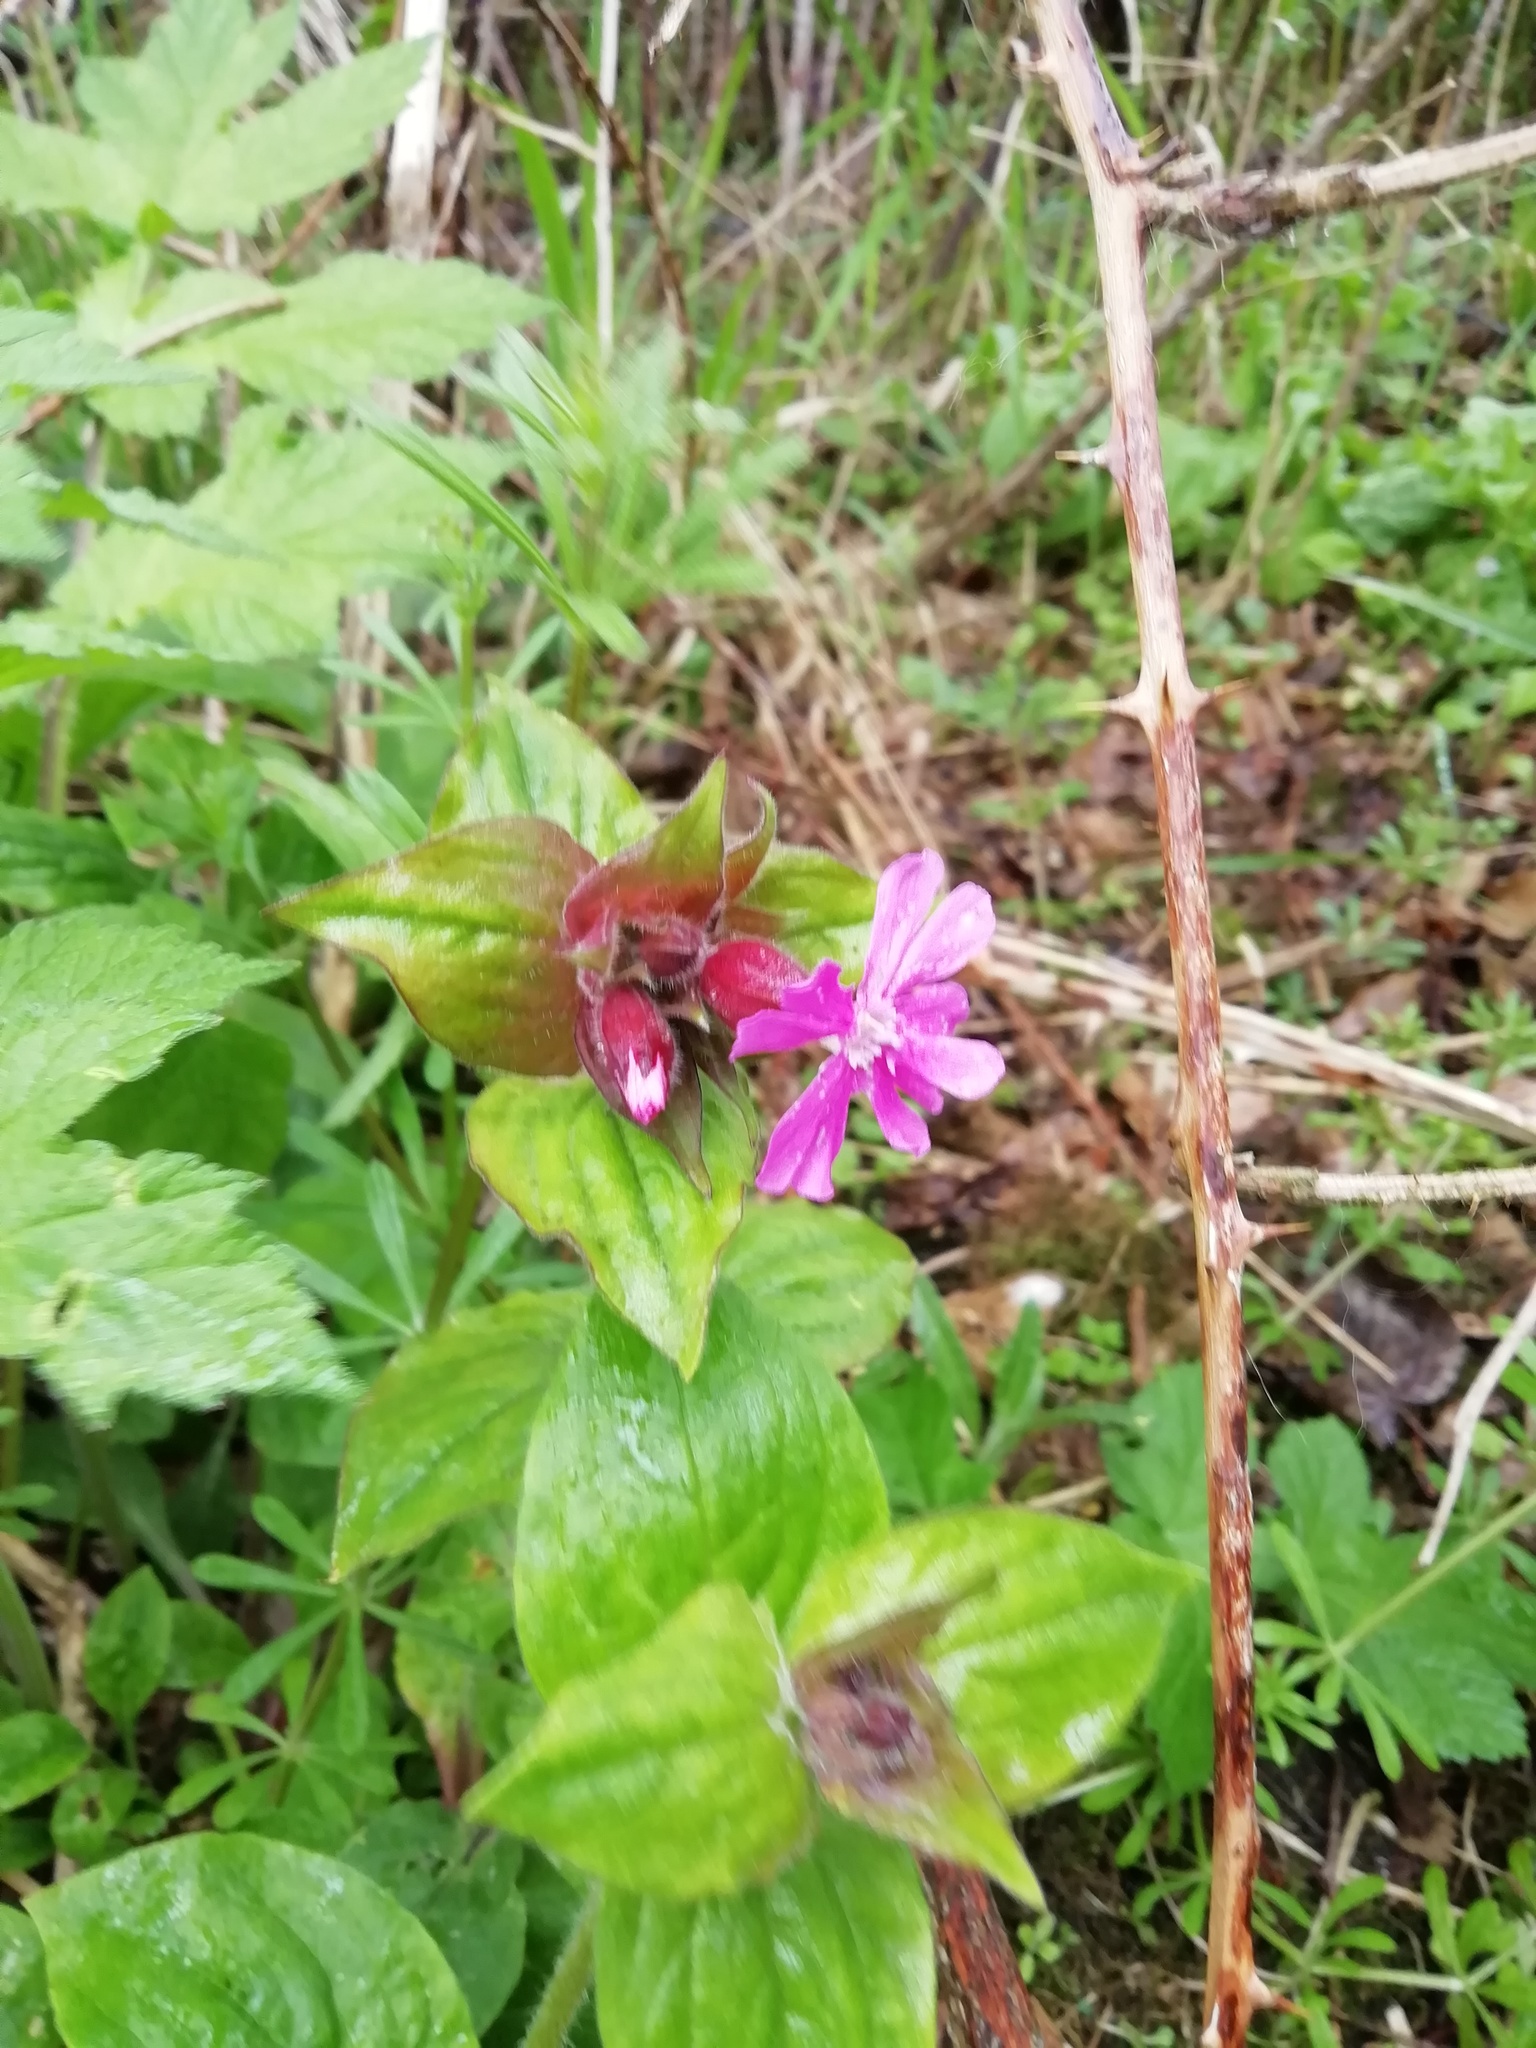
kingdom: Plantae
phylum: Tracheophyta
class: Magnoliopsida
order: Caryophyllales
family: Caryophyllaceae
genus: Silene
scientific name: Silene dioica
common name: Red campion
